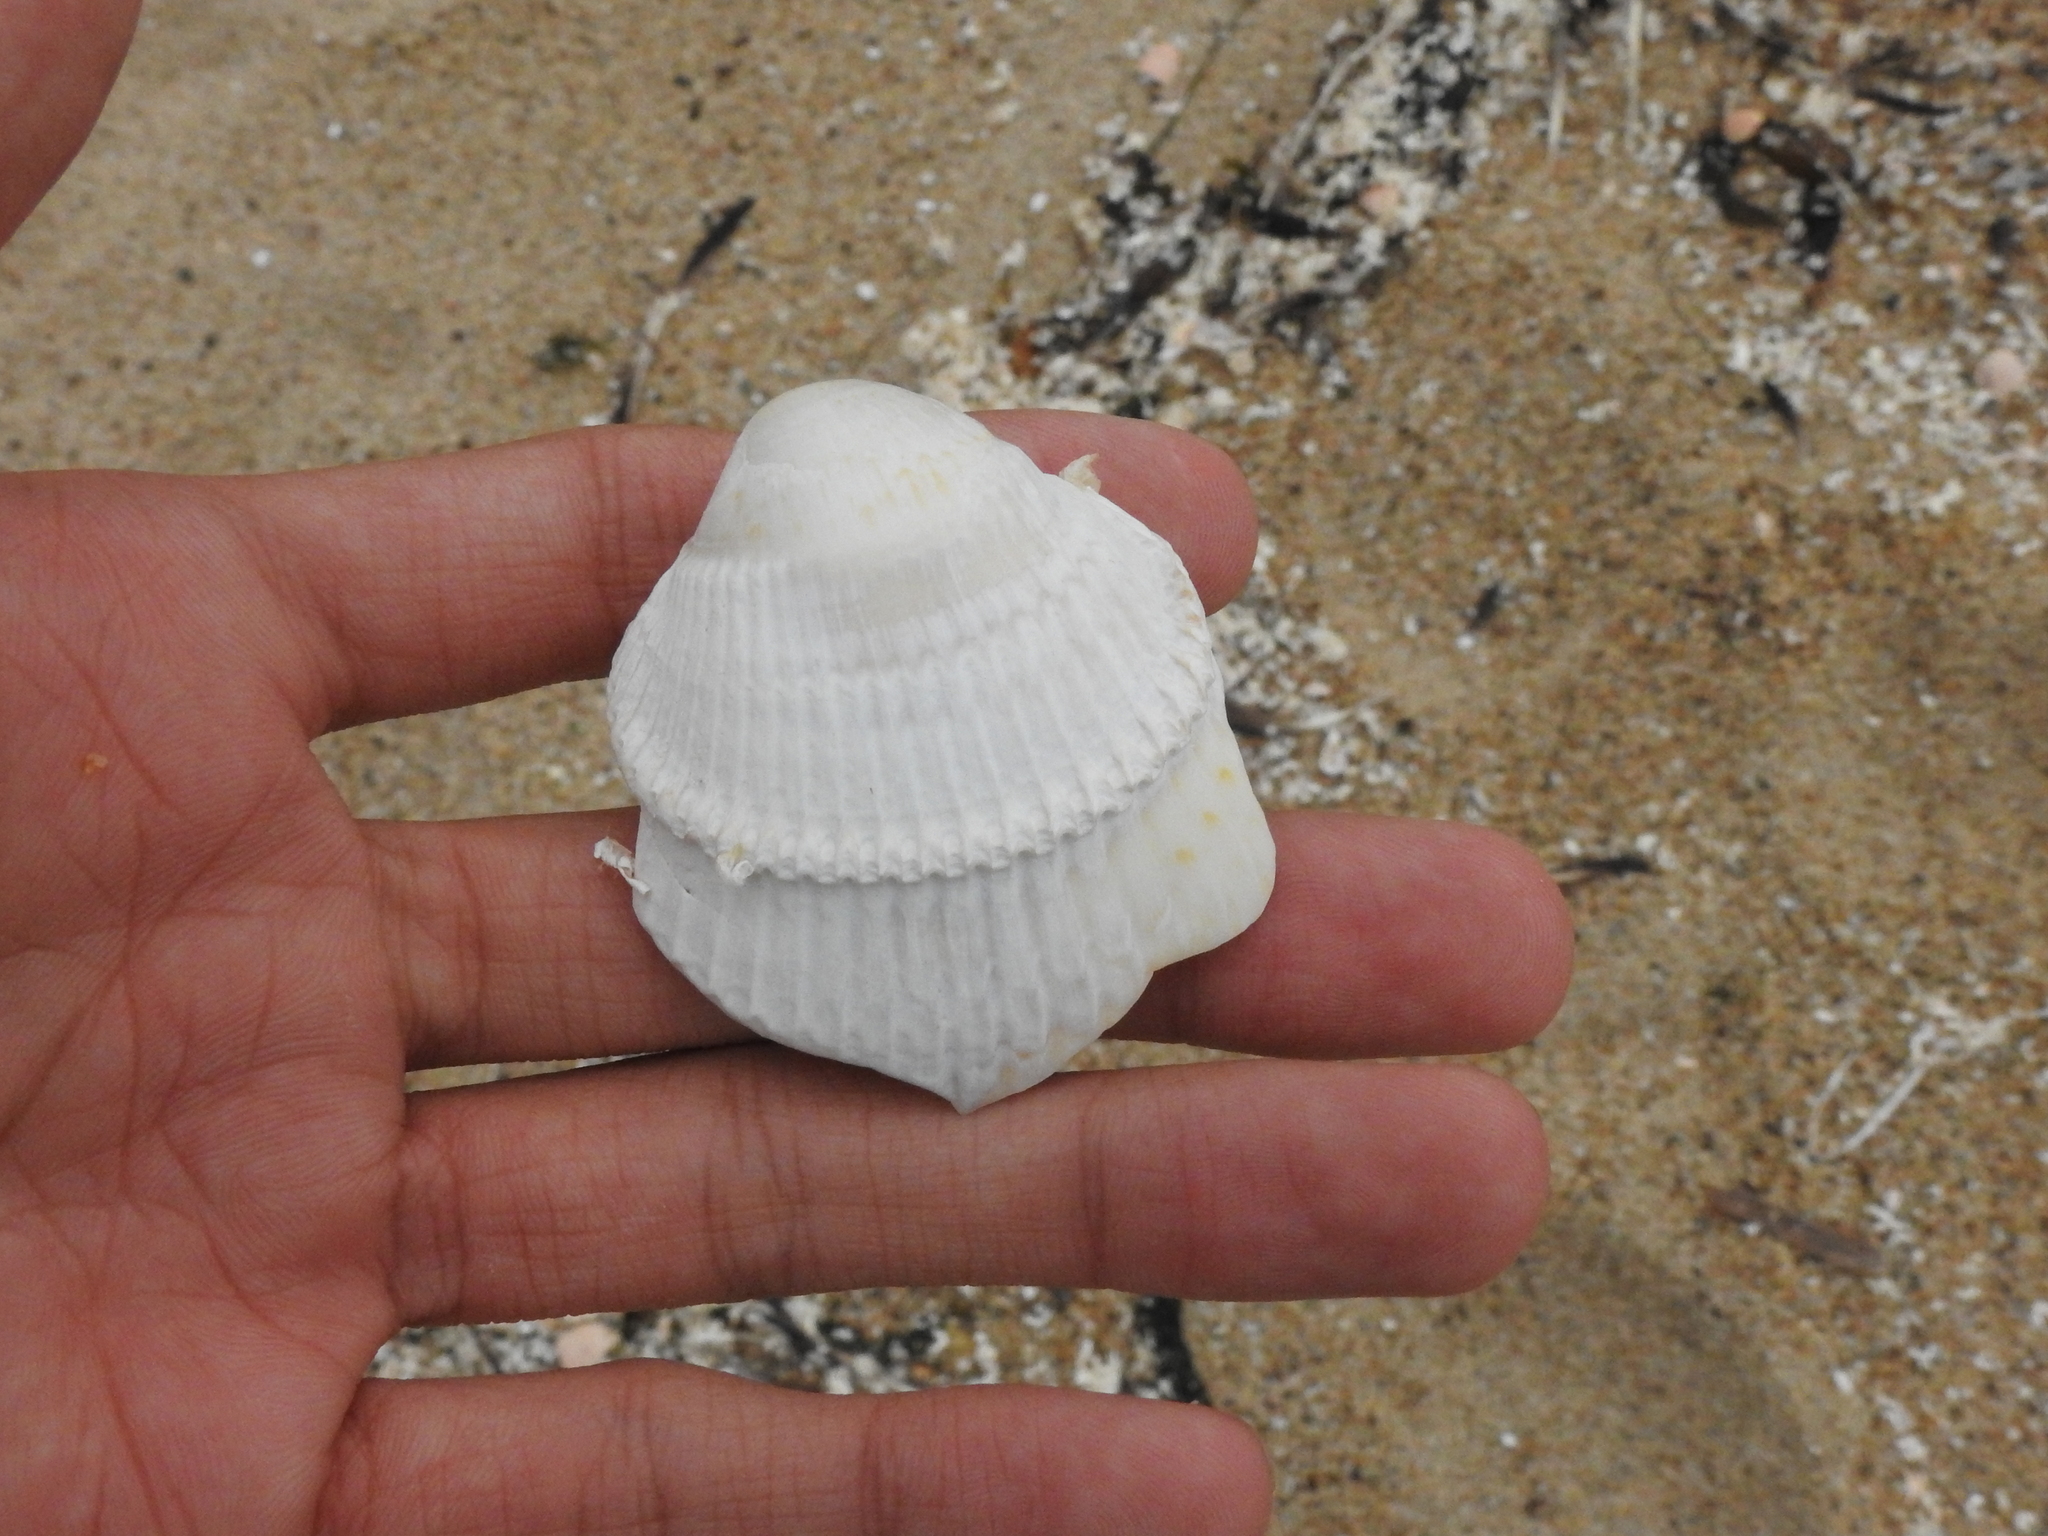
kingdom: Animalia
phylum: Mollusca
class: Bivalvia
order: Cardiida
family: Cardiidae
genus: Clinocardium
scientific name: Clinocardium nuttallii
